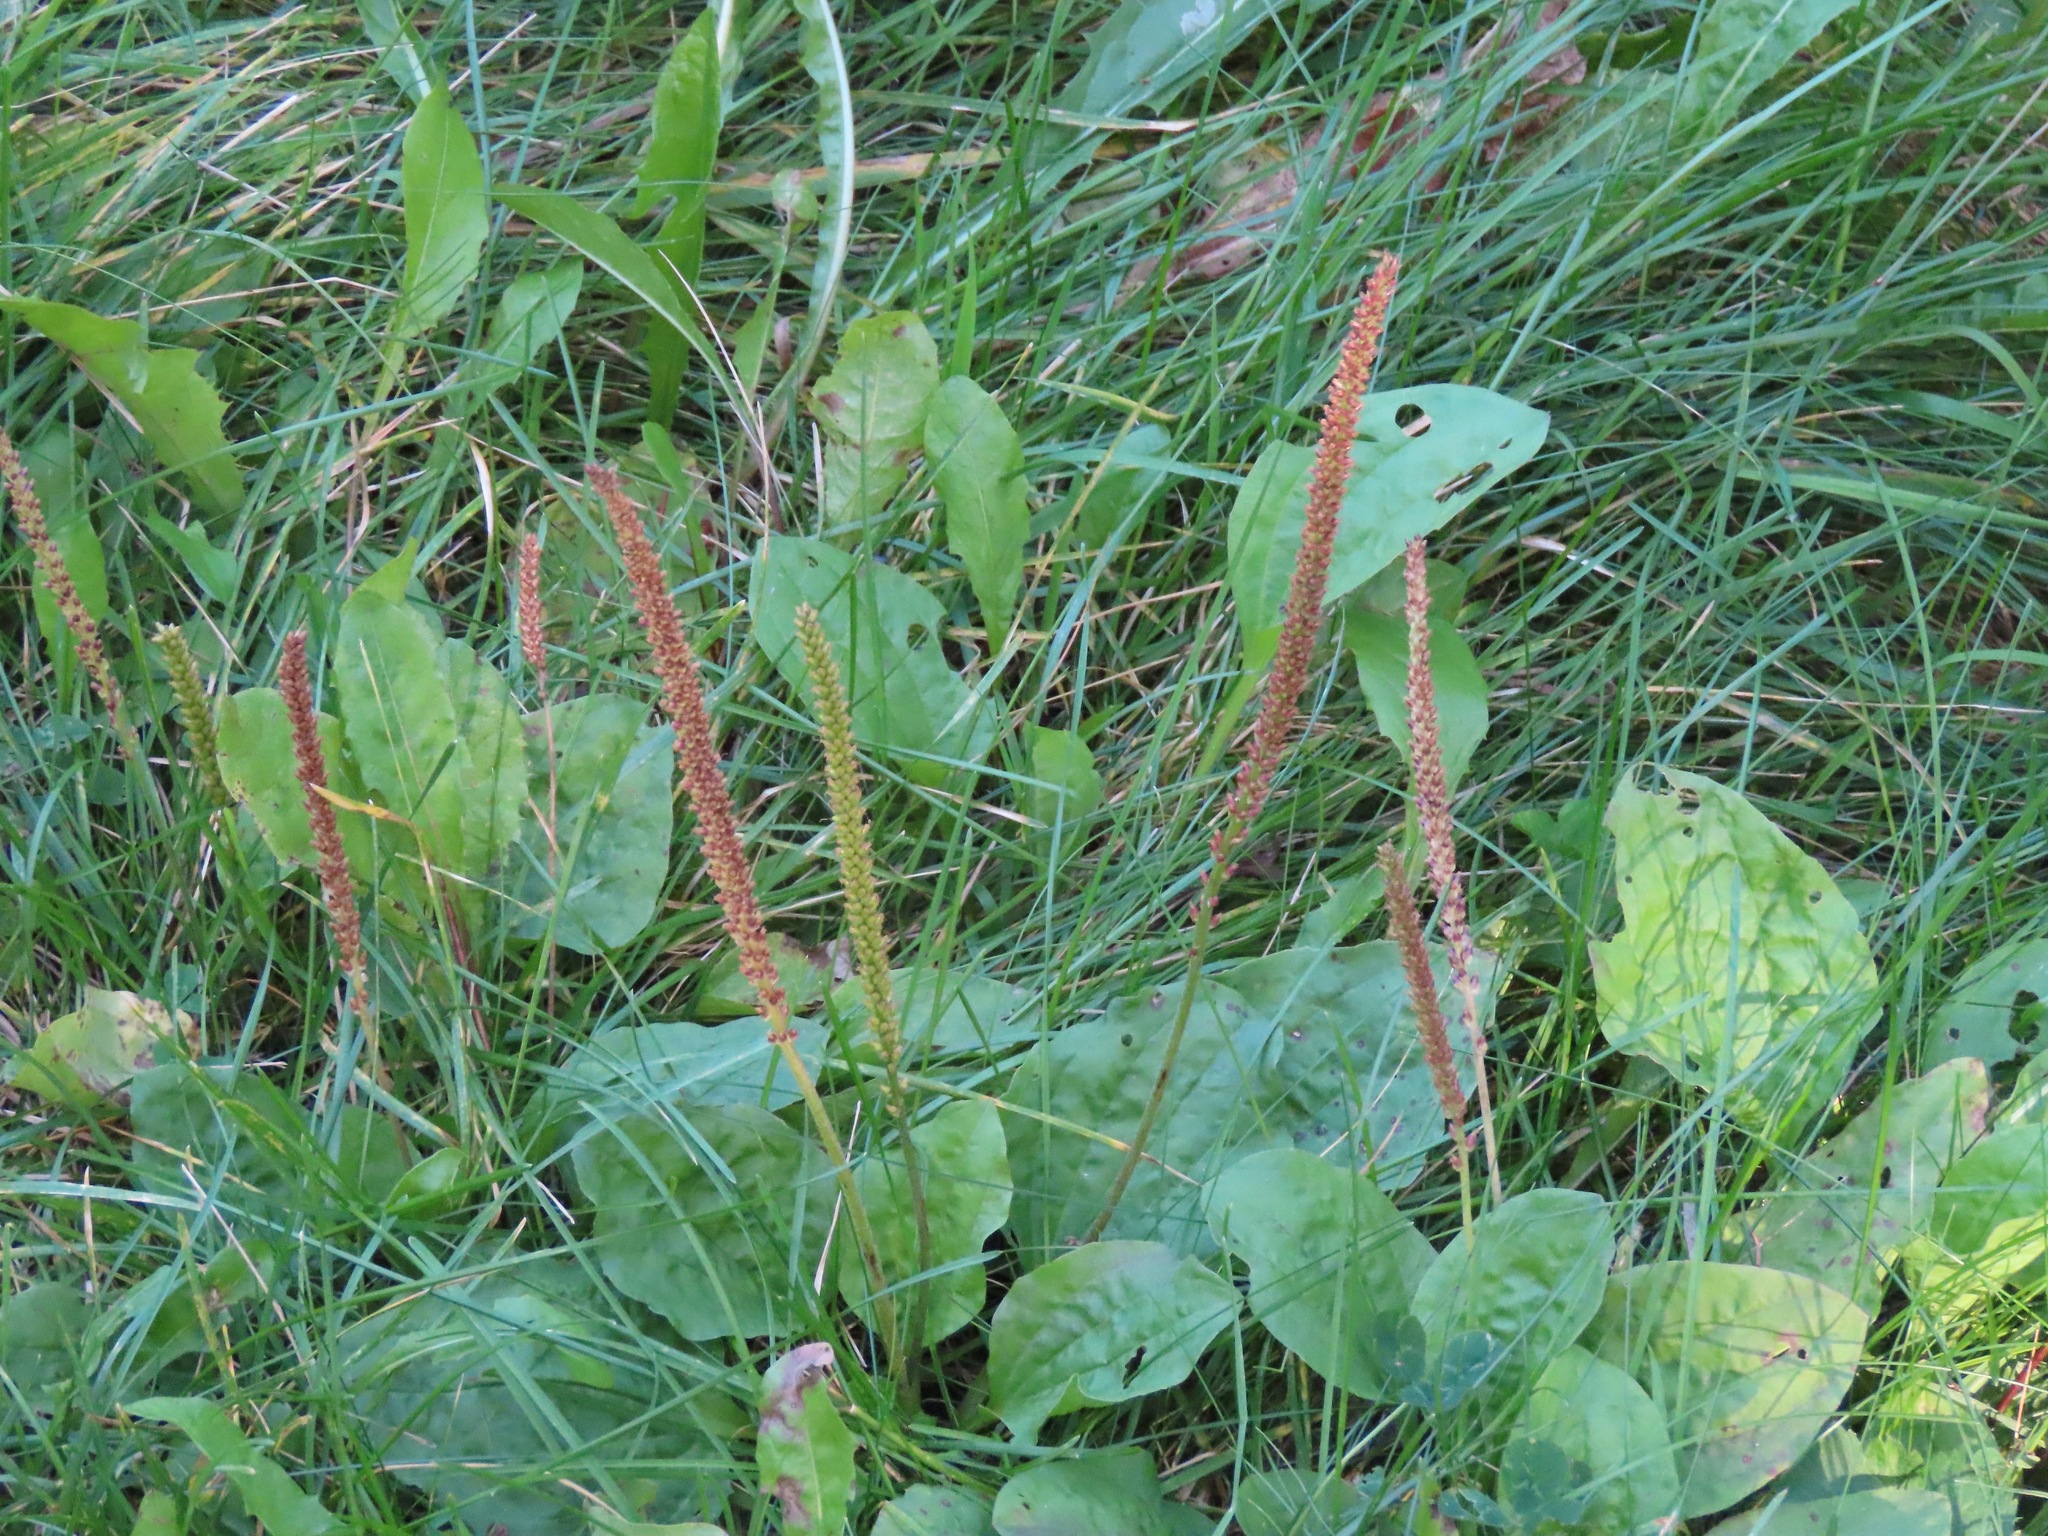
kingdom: Plantae
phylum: Tracheophyta
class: Magnoliopsida
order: Lamiales
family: Plantaginaceae
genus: Plantago
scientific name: Plantago major
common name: Common plantain
